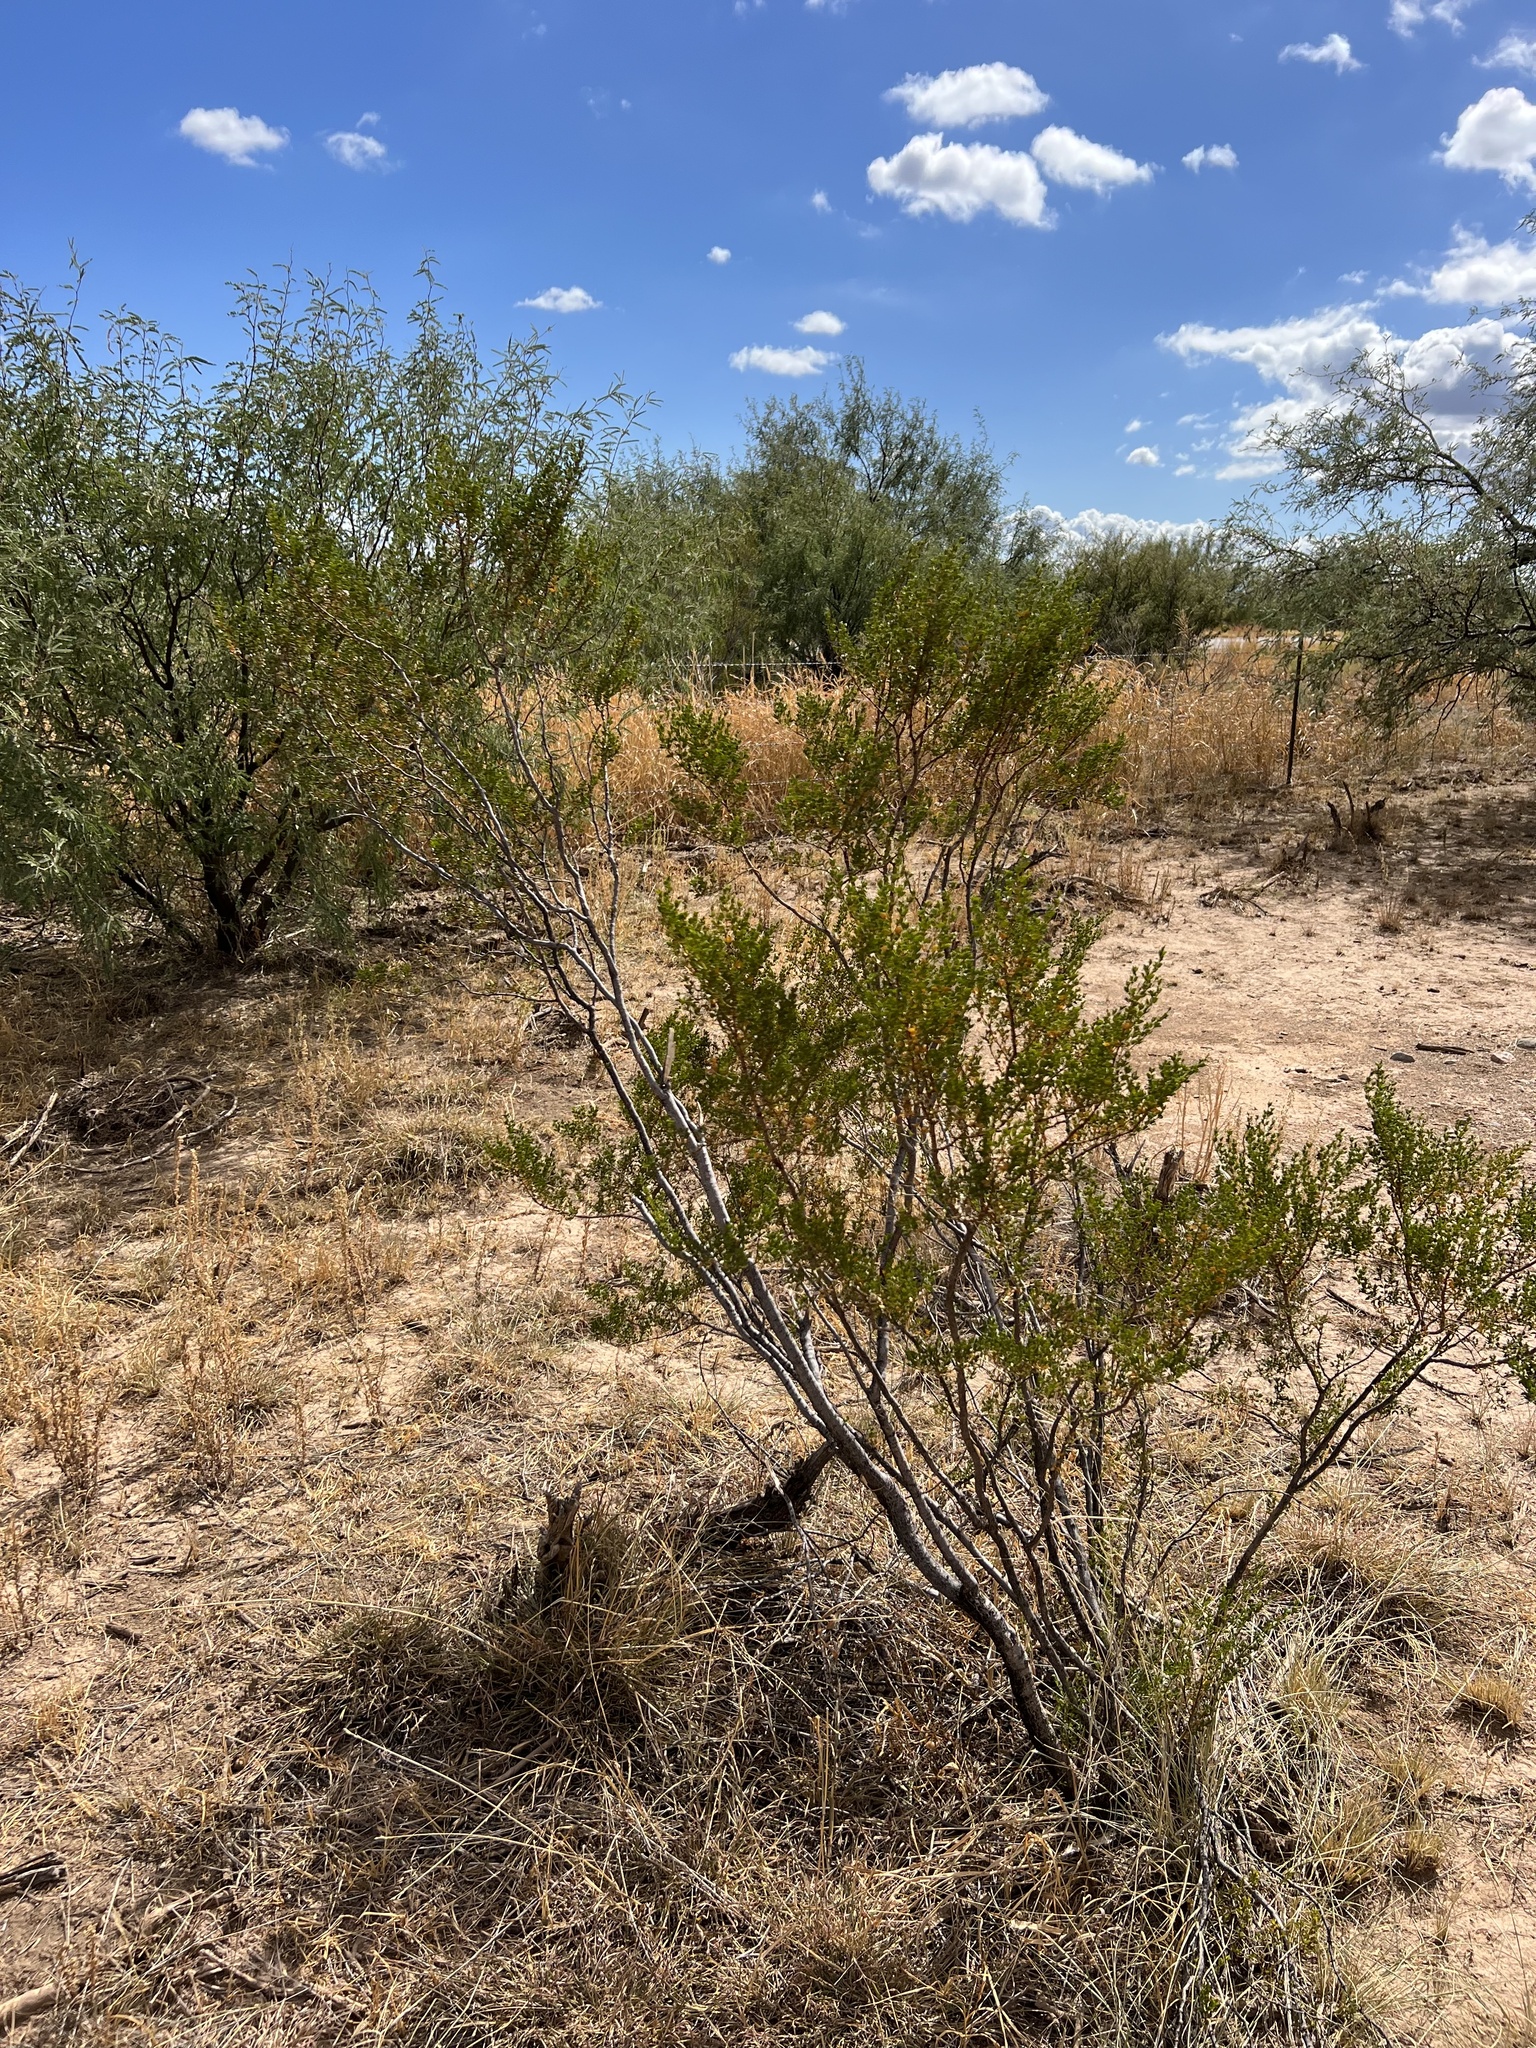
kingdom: Plantae
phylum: Tracheophyta
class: Magnoliopsida
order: Zygophyllales
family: Zygophyllaceae
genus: Larrea
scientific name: Larrea tridentata
